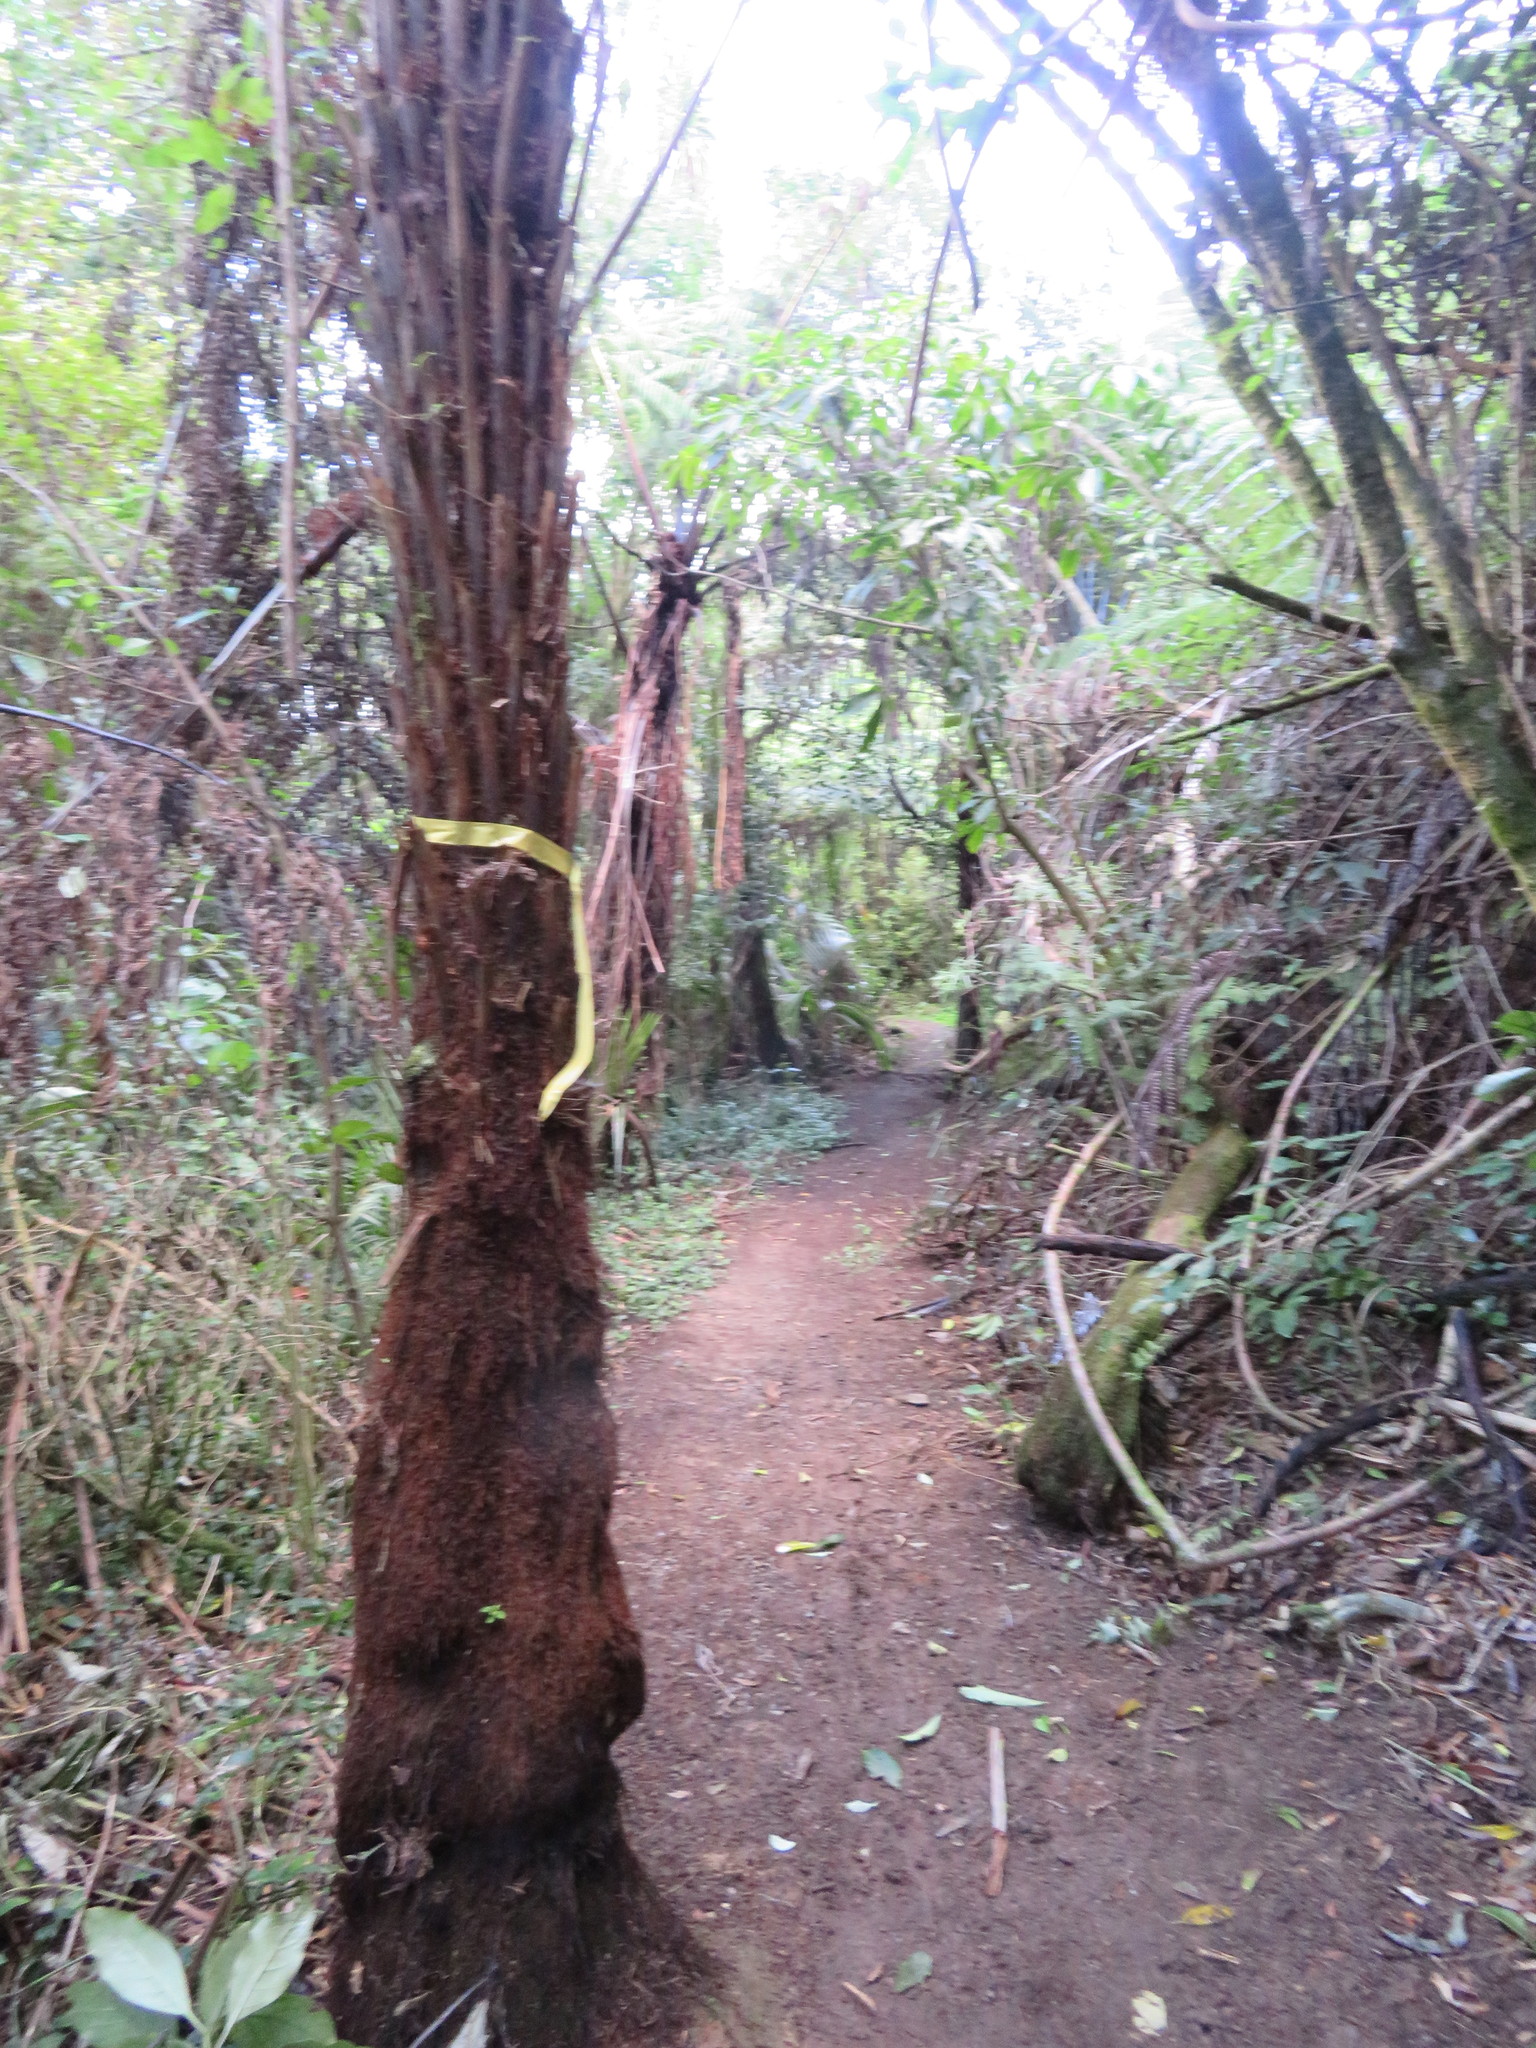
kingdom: Plantae
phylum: Tracheophyta
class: Liliopsida
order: Commelinales
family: Commelinaceae
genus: Tradescantia
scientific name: Tradescantia fluminensis
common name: Wandering-jew
